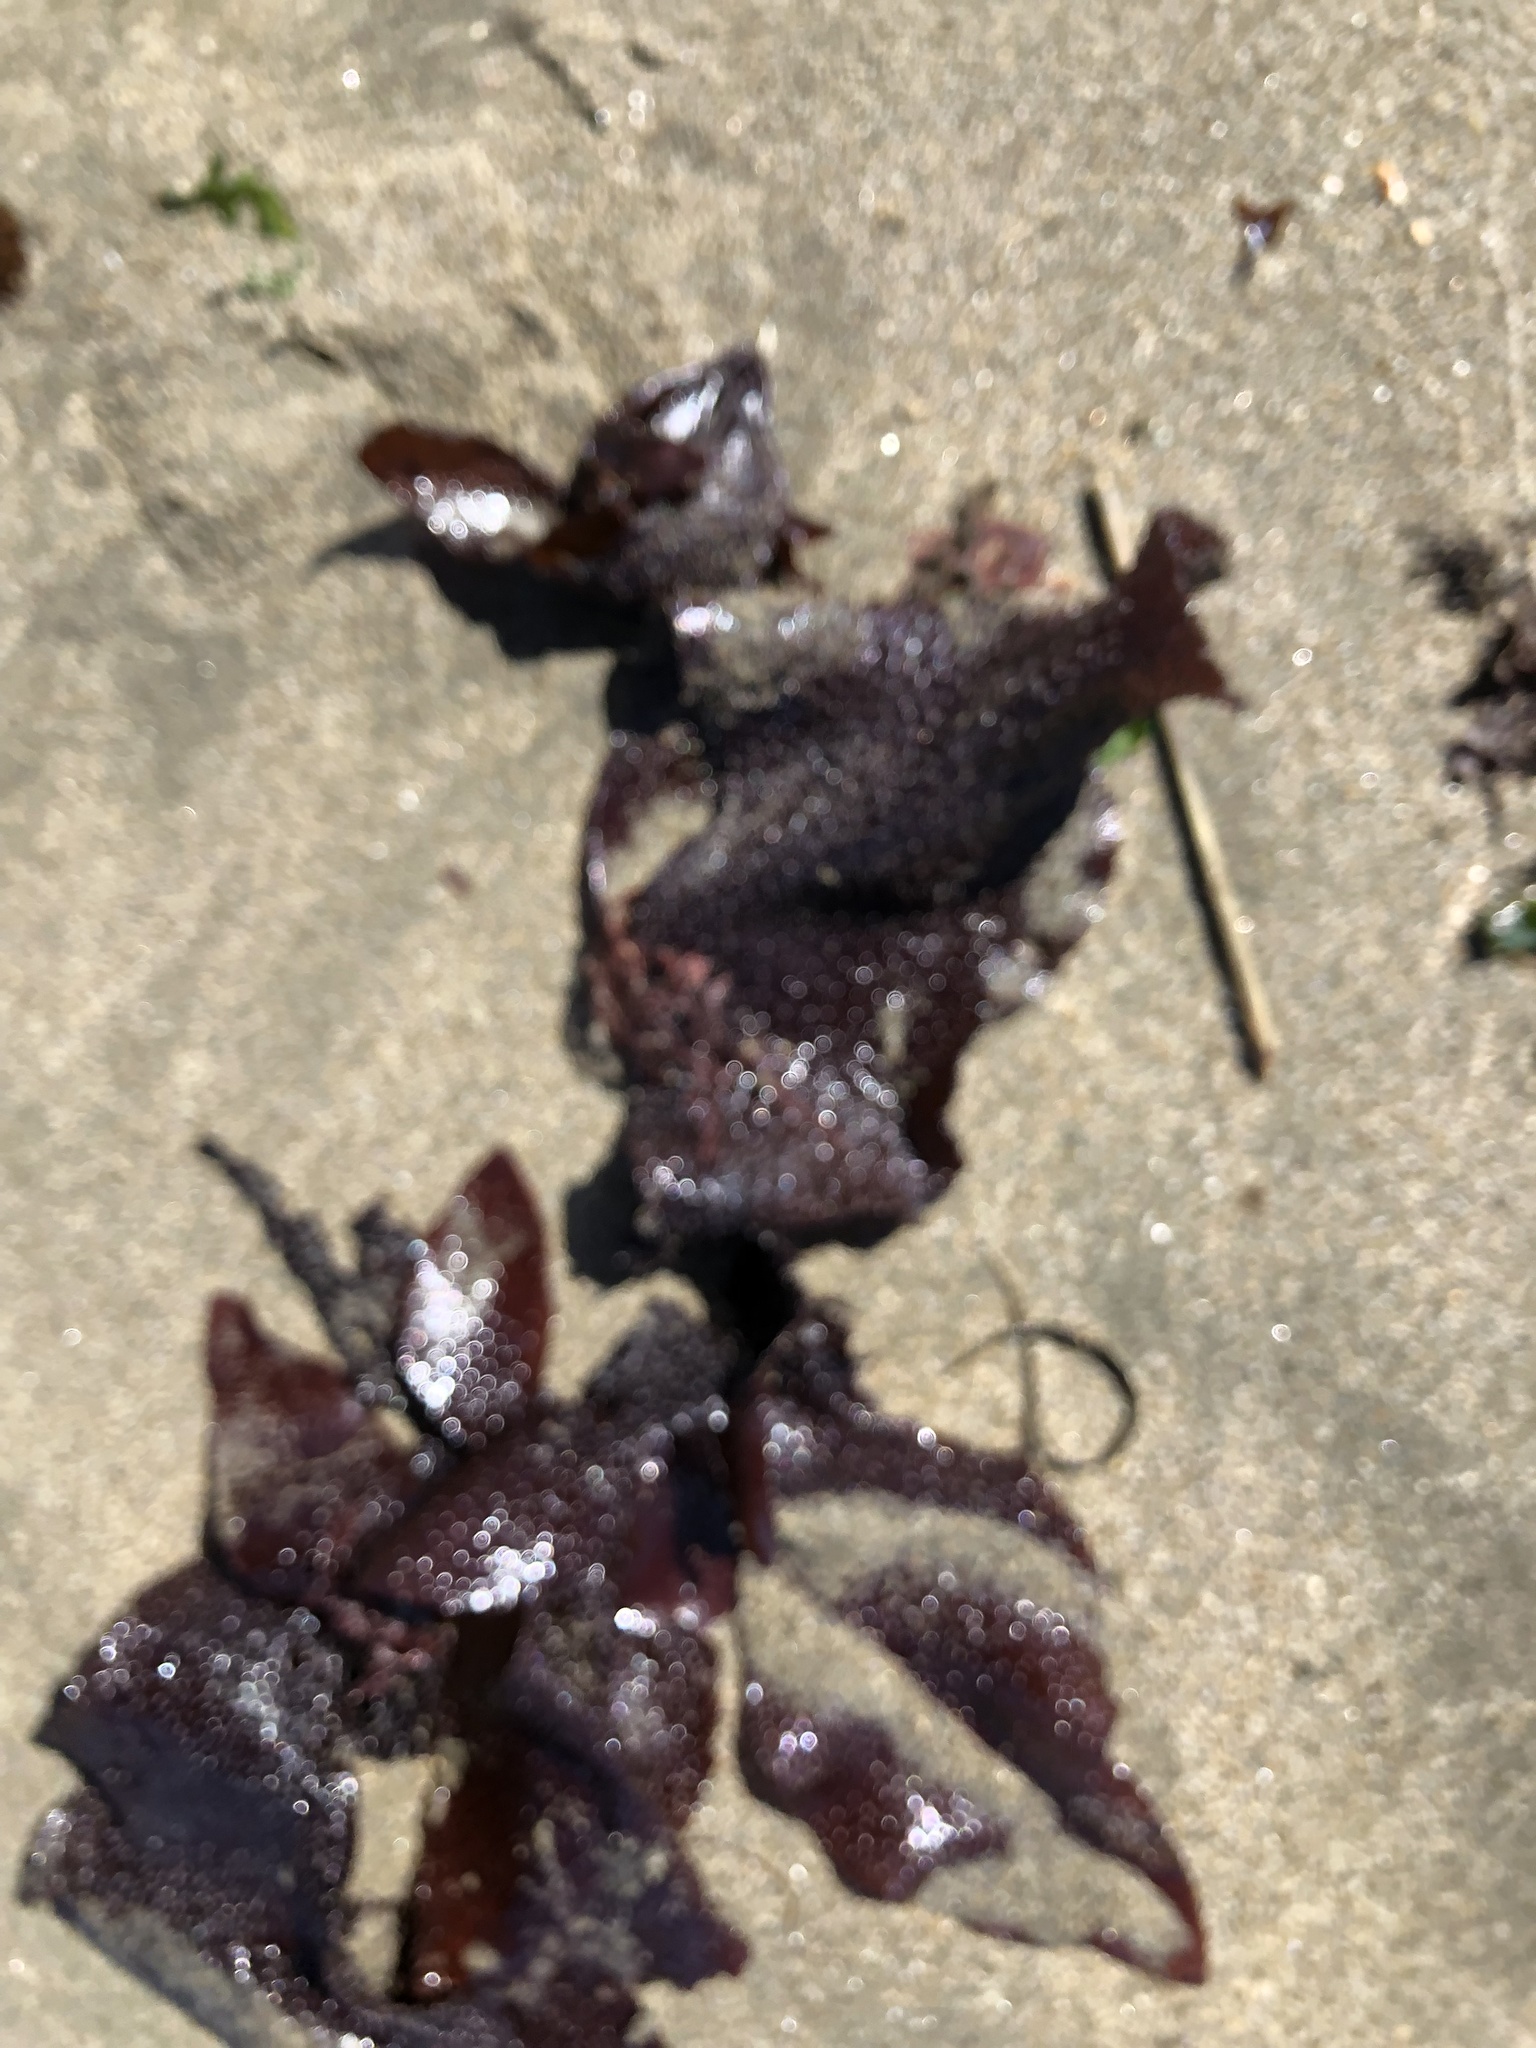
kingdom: Plantae
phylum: Rhodophyta
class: Florideophyceae
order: Gigartinales
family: Gigartinaceae
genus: Chondracanthus
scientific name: Chondracanthus exasperatus
